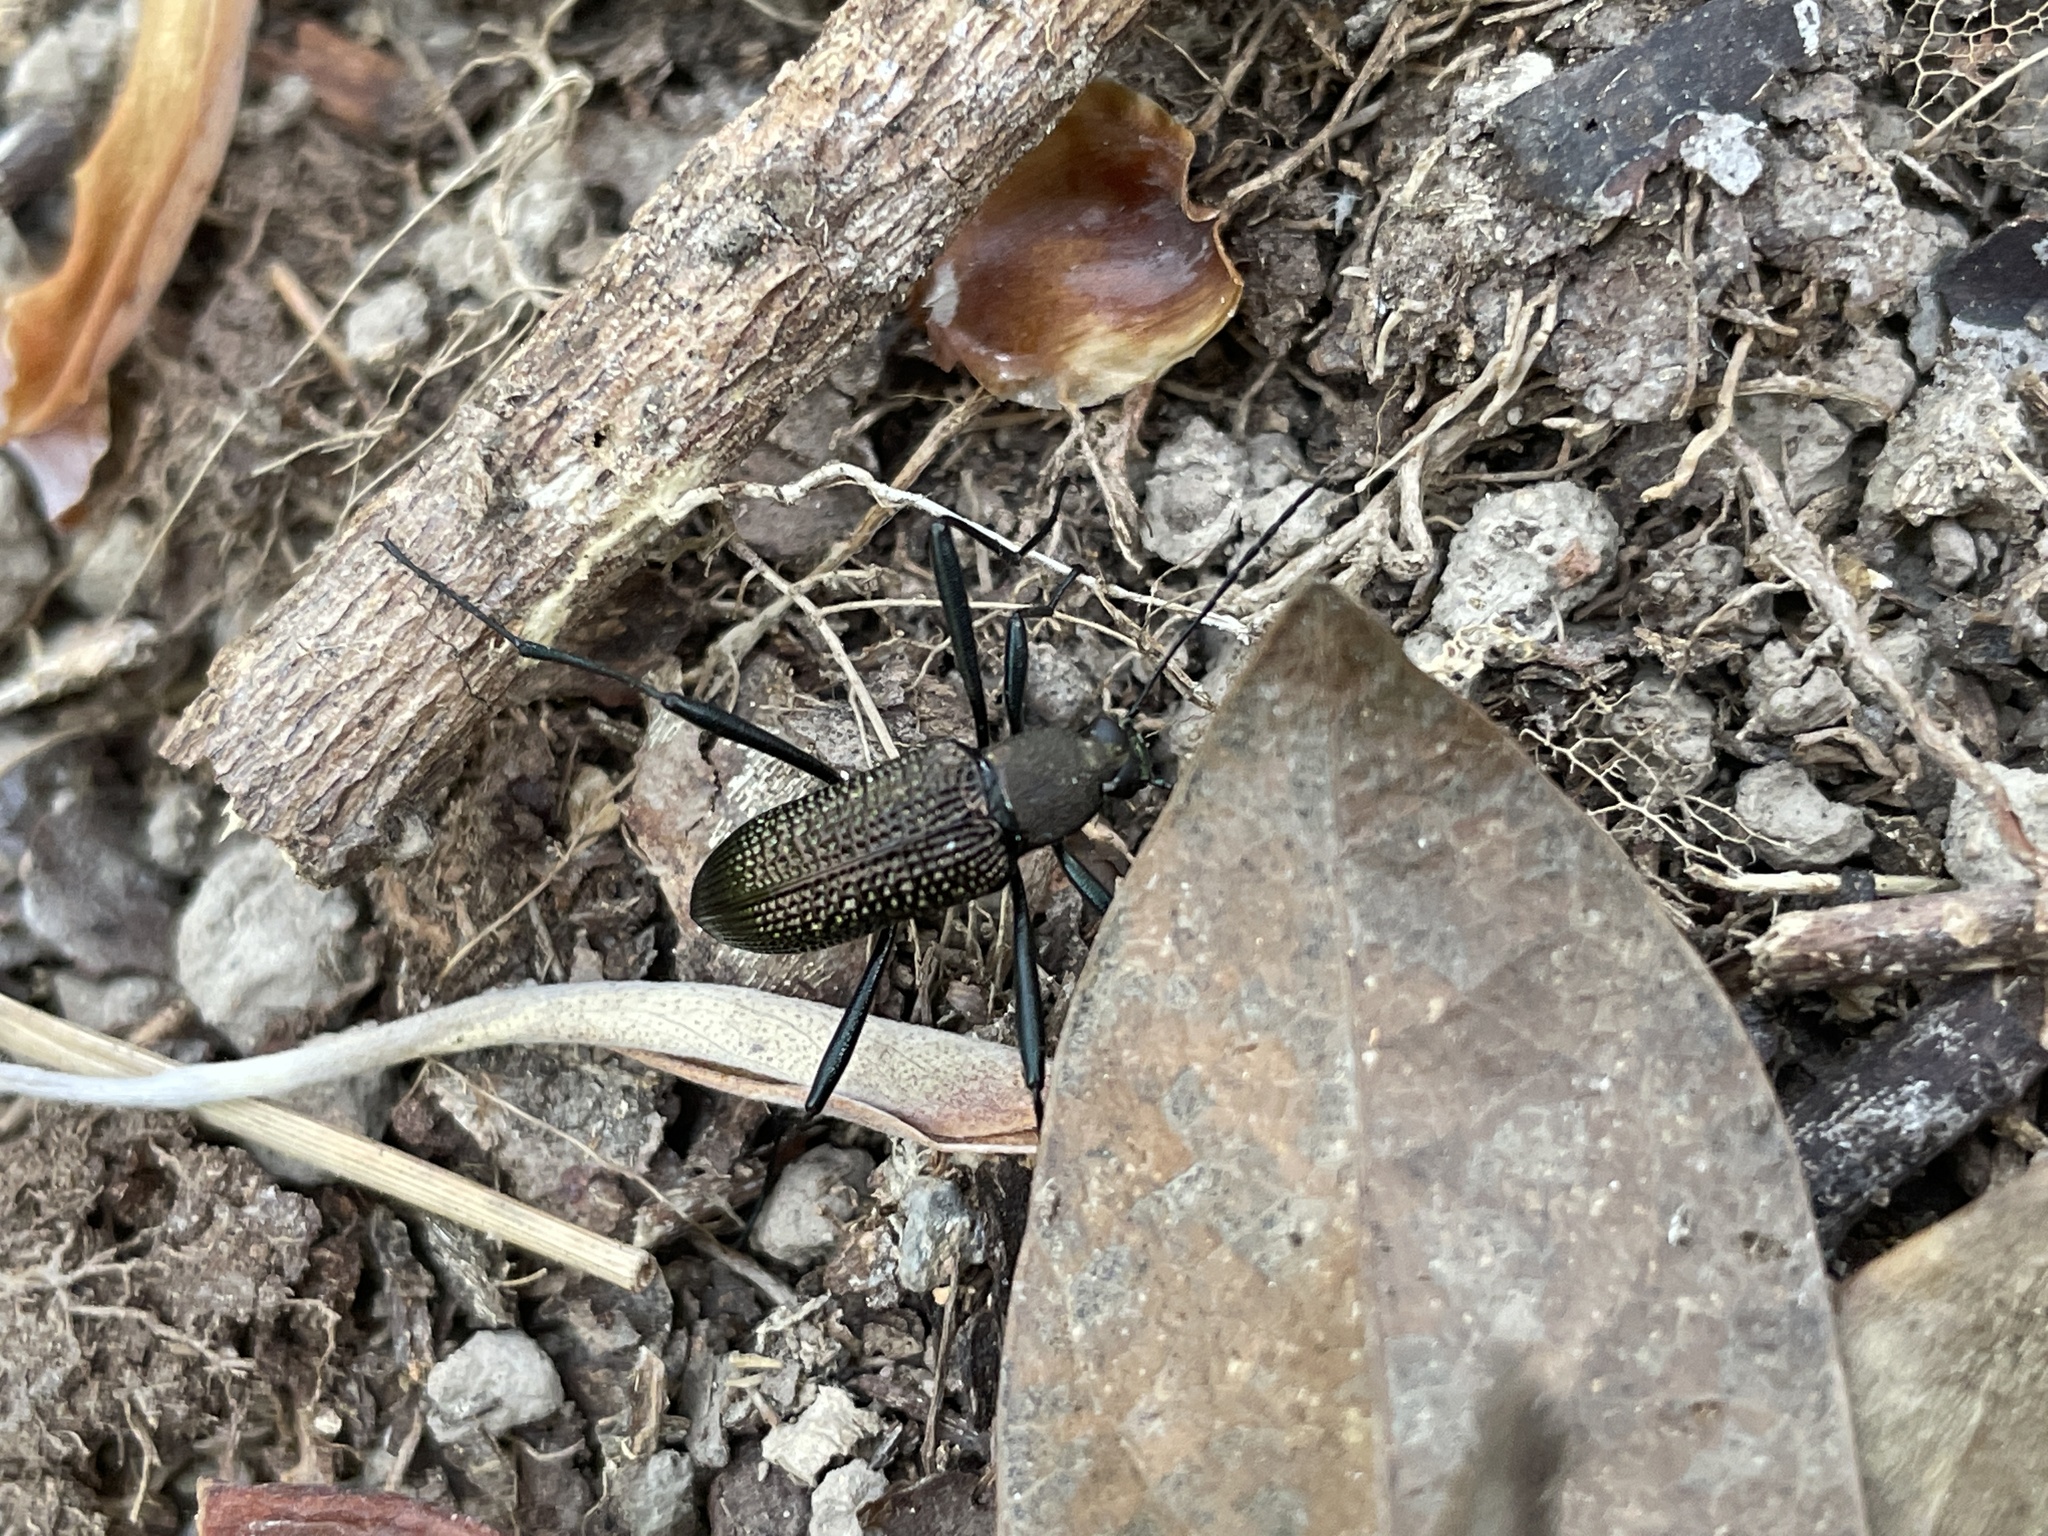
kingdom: Animalia
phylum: Arthropoda
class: Insecta
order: Coleoptera
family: Tenebrionidae
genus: Strongylium
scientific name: Strongylium
